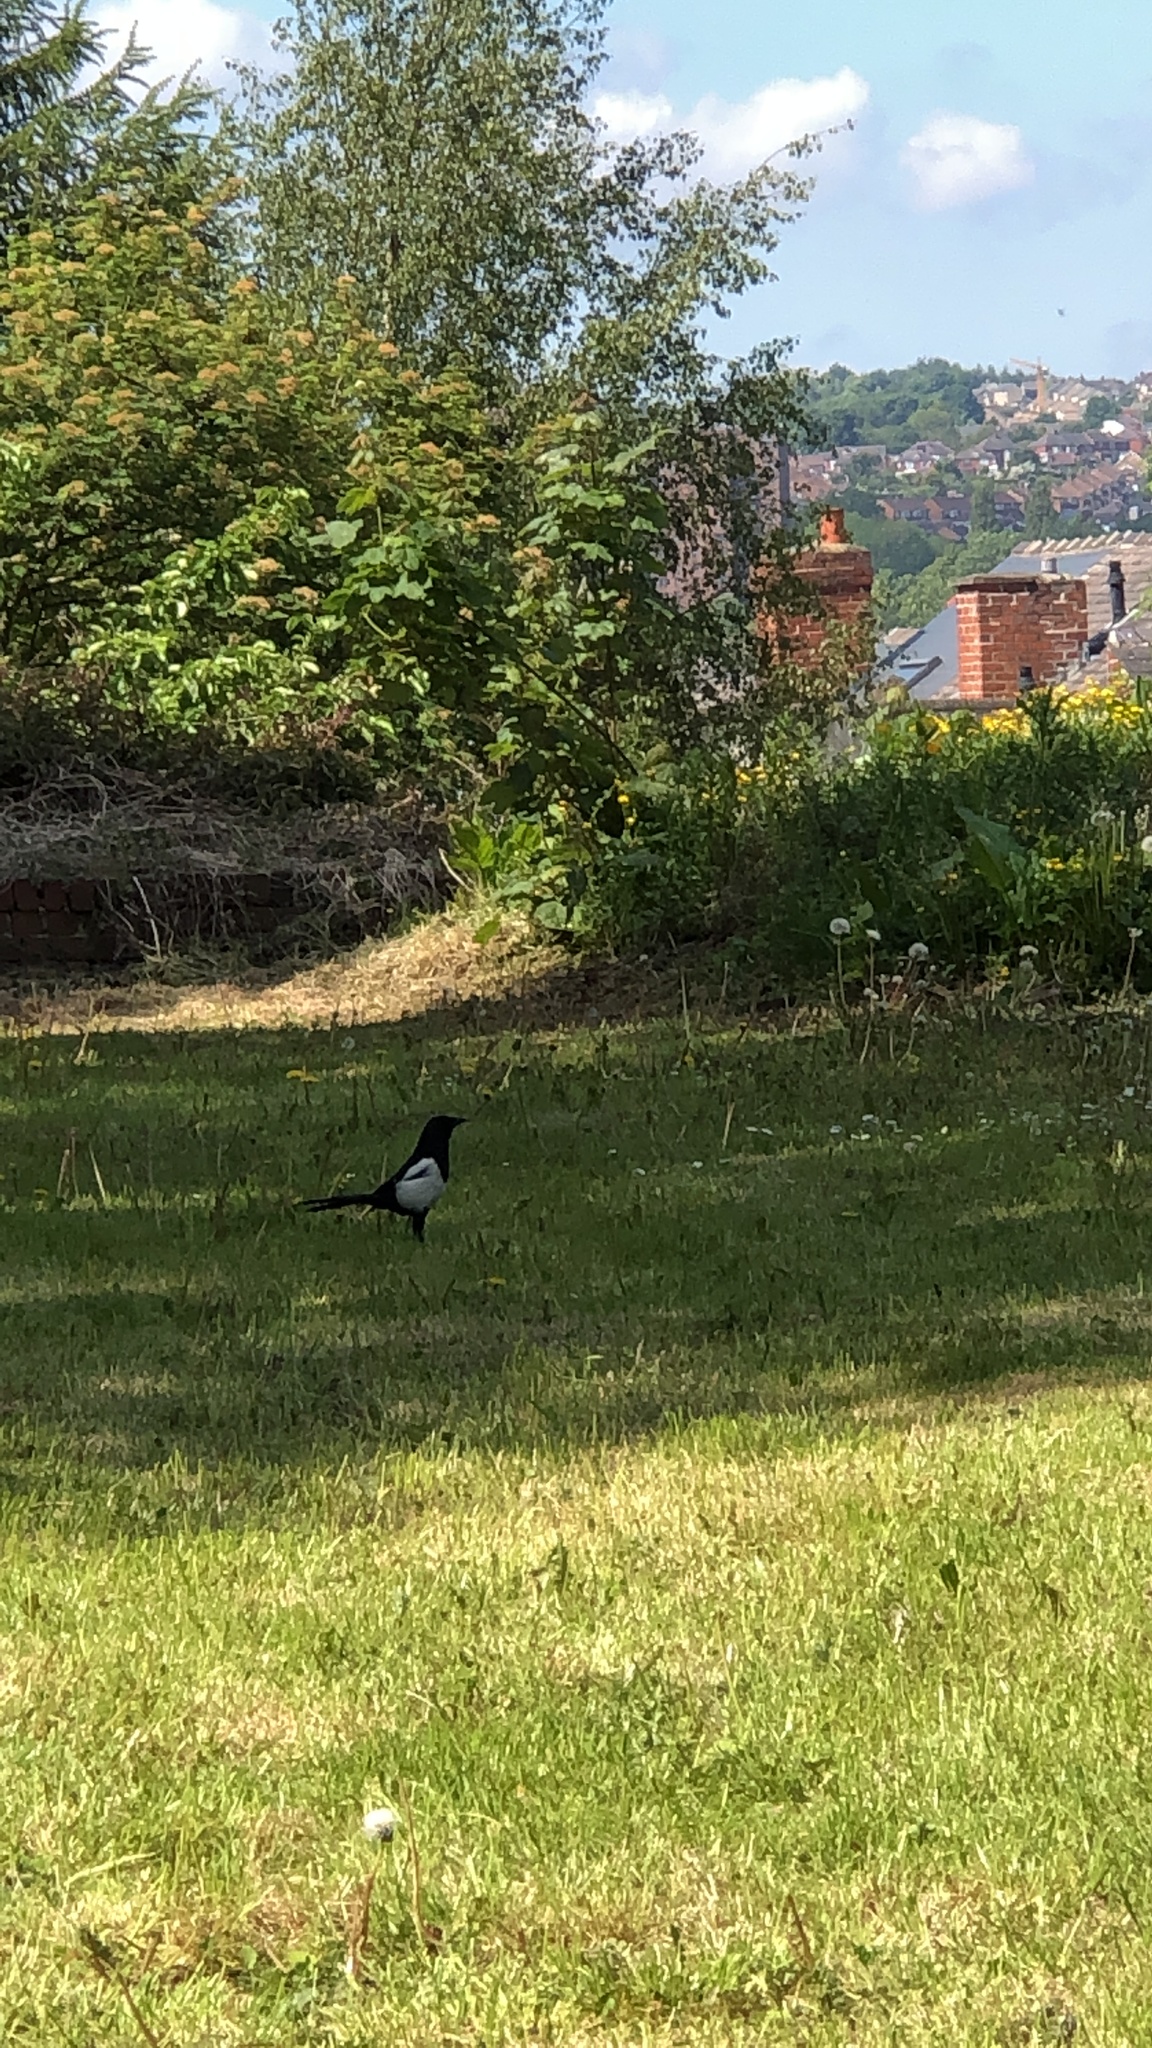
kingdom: Animalia
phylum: Chordata
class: Aves
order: Passeriformes
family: Corvidae
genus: Pica
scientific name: Pica pica
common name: Eurasian magpie
